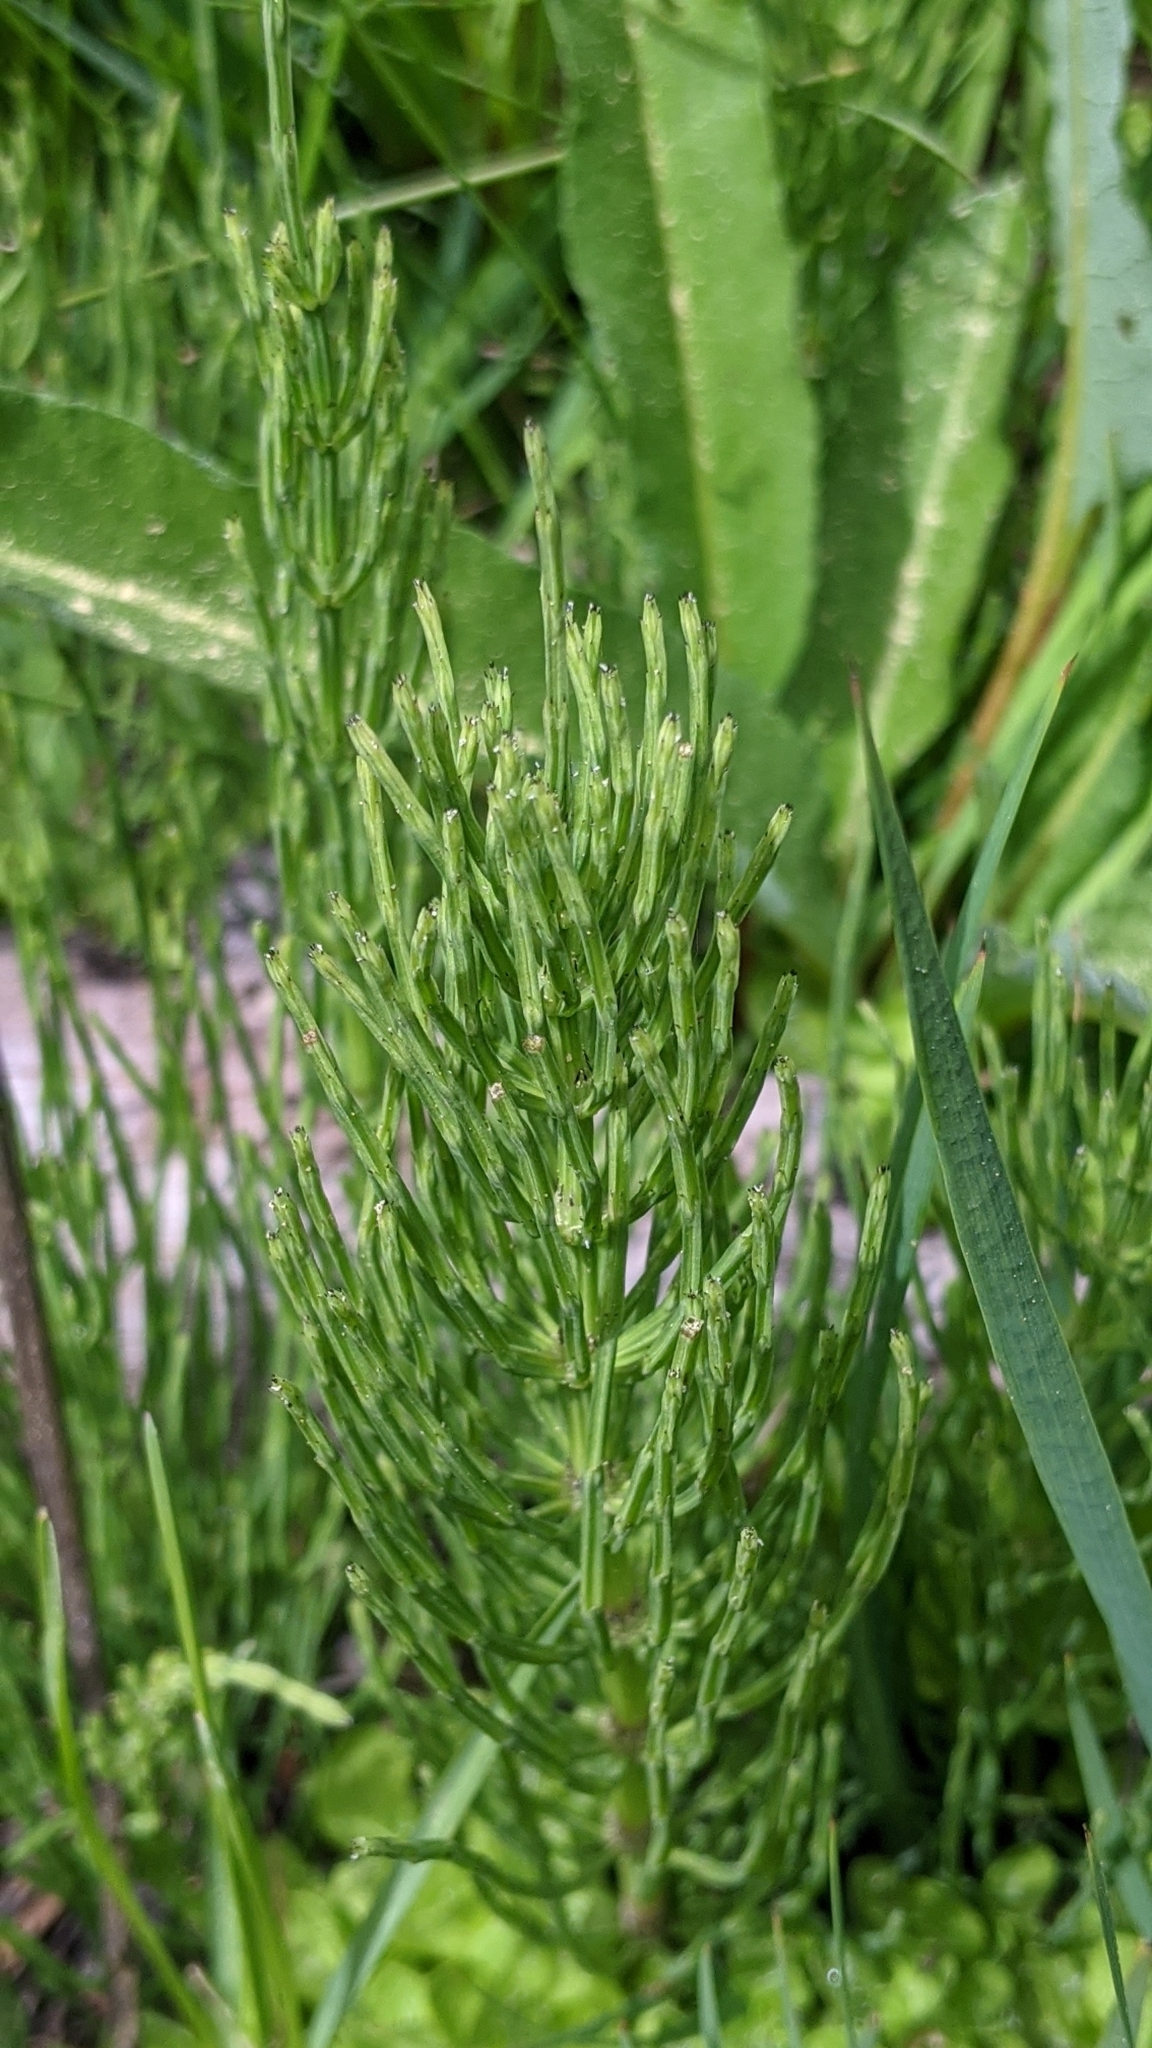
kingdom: Plantae
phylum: Tracheophyta
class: Polypodiopsida
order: Equisetales
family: Equisetaceae
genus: Equisetum
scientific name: Equisetum arvense
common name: Field horsetail
